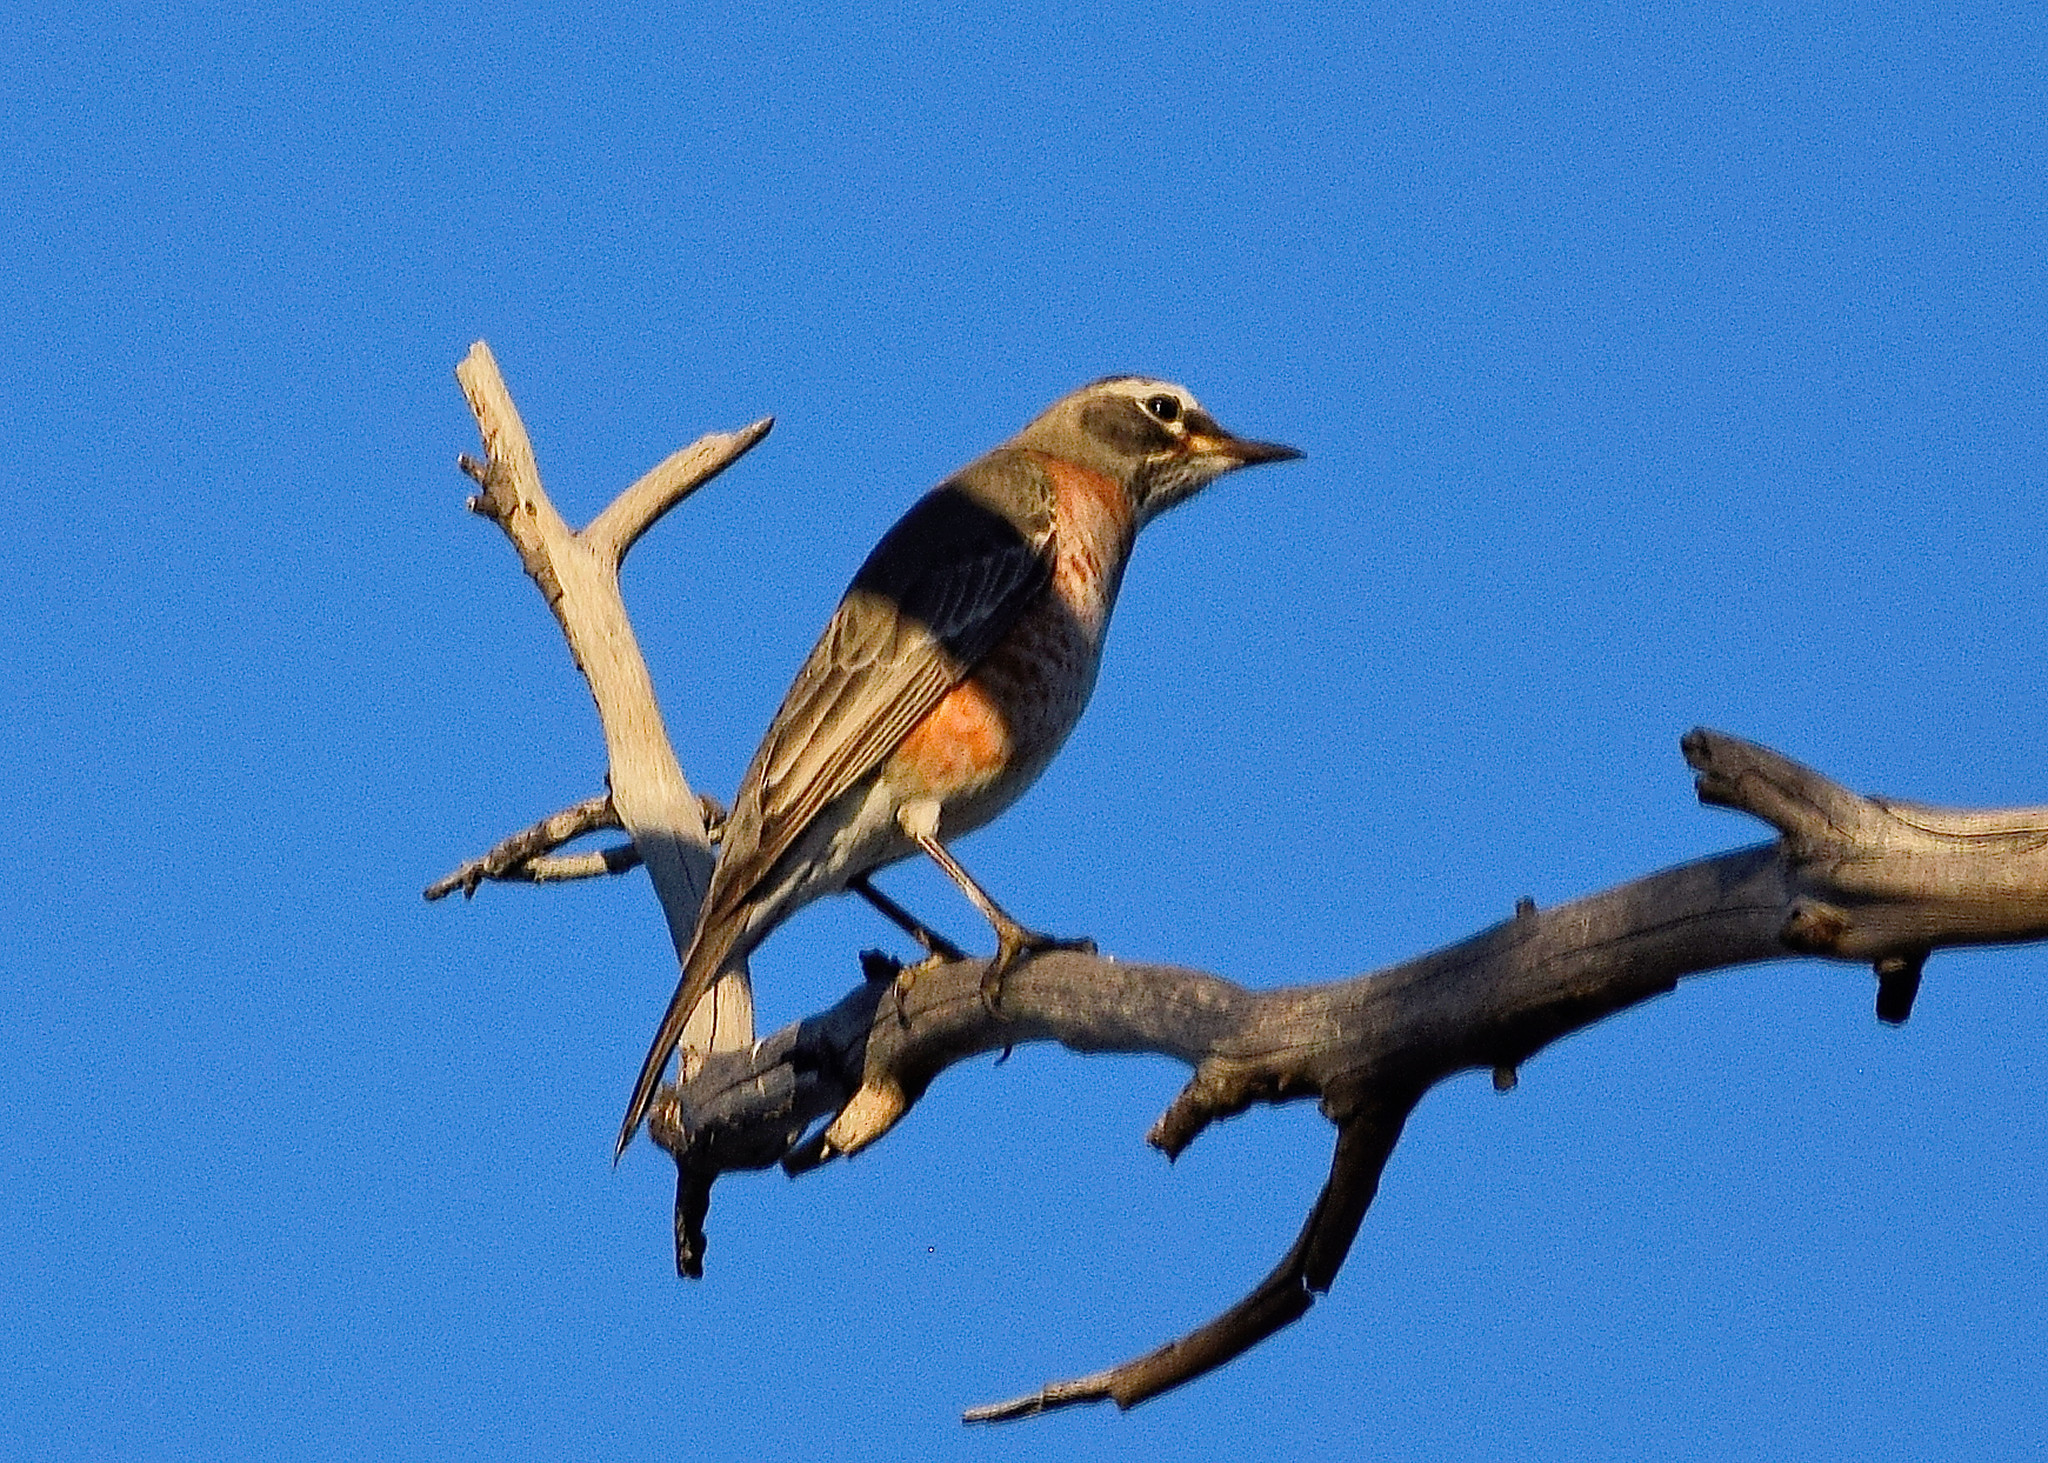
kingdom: Animalia
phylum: Chordata
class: Aves
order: Passeriformes
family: Turdidae
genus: Turdus
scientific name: Turdus migratorius
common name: American robin
